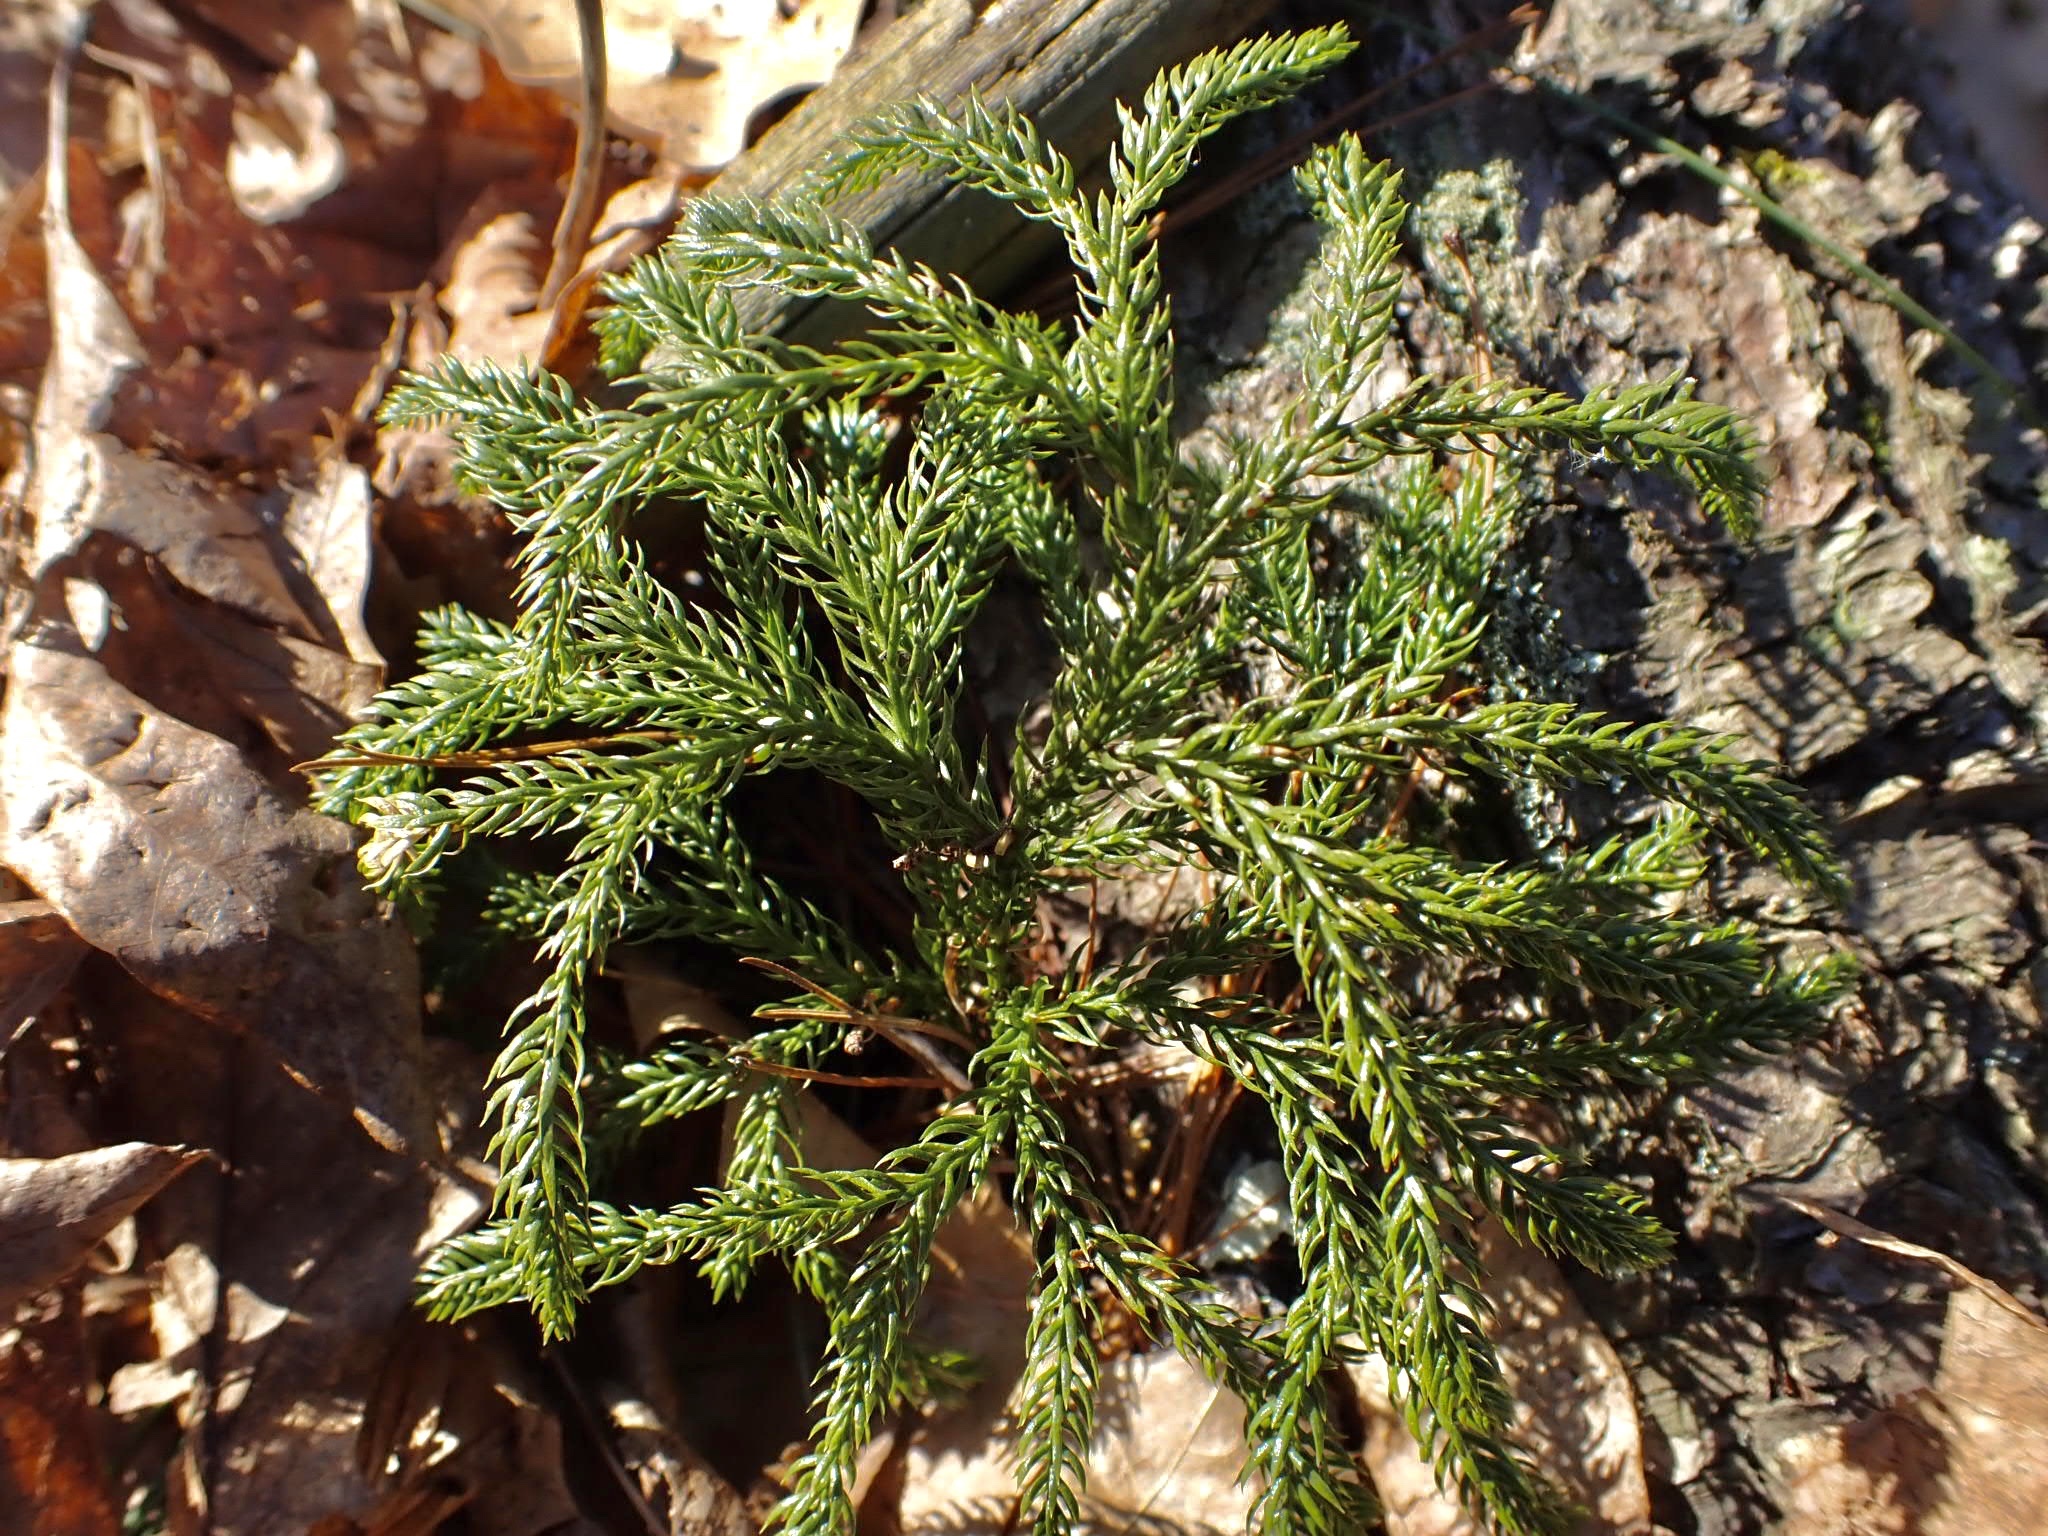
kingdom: Plantae
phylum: Tracheophyta
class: Lycopodiopsida
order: Lycopodiales
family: Lycopodiaceae
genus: Dendrolycopodium
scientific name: Dendrolycopodium dendroideum
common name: Northern tree-clubmoss
